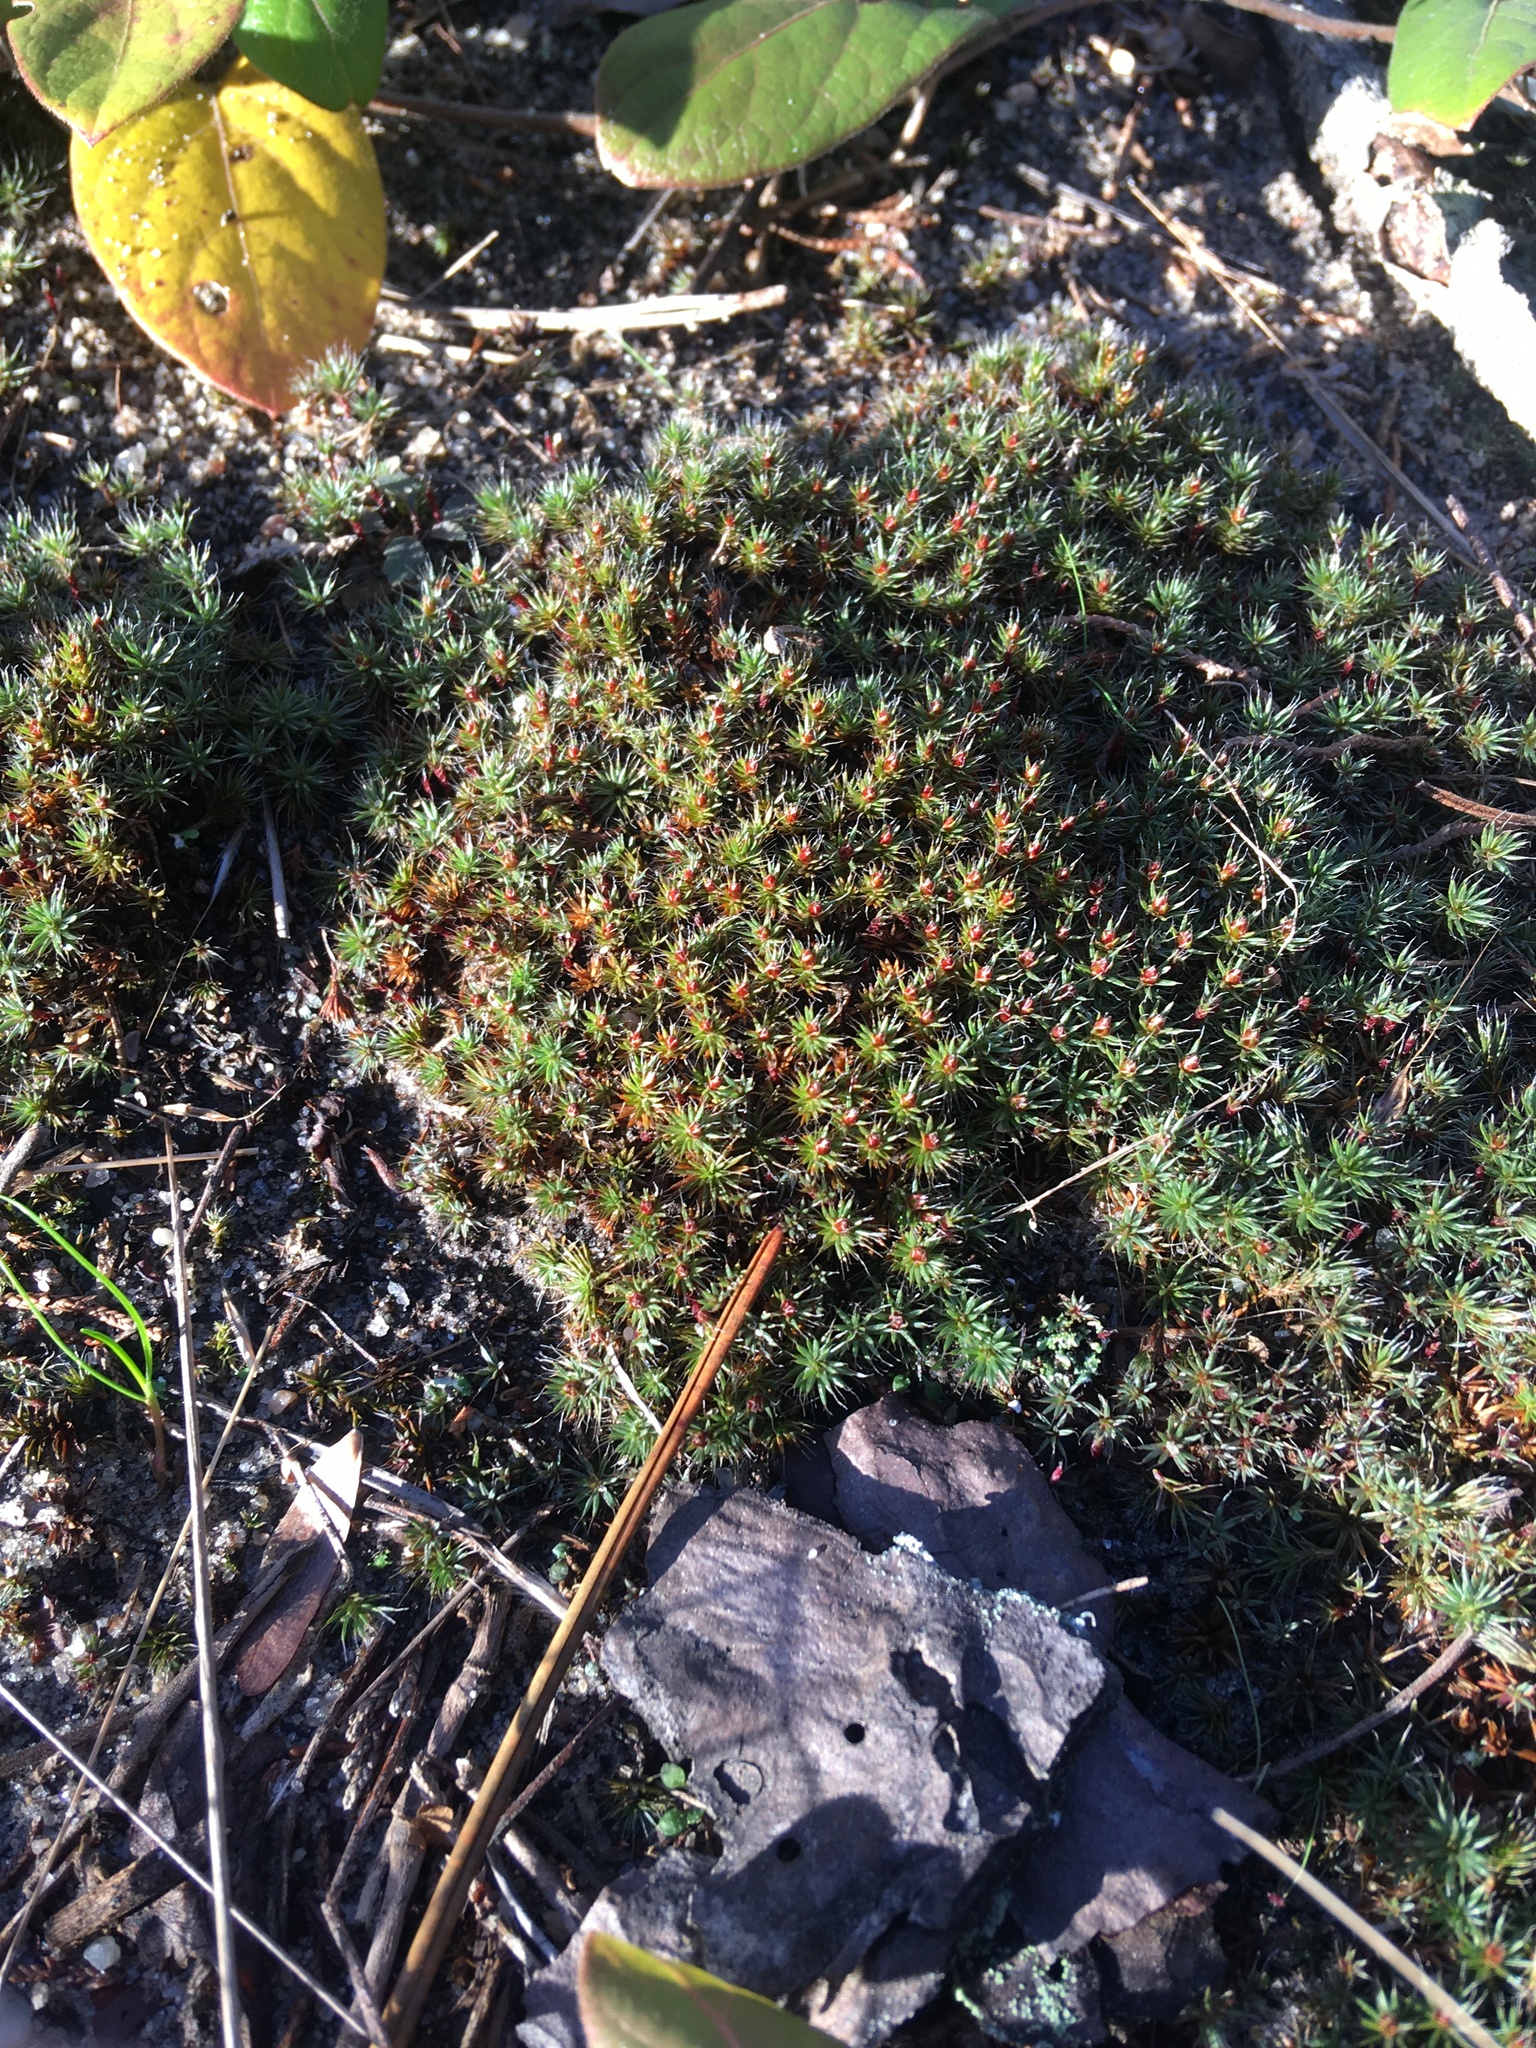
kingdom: Plantae
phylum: Bryophyta
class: Polytrichopsida
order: Polytrichales
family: Polytrichaceae
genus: Polytrichum
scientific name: Polytrichum piliferum
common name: Bristly haircap
